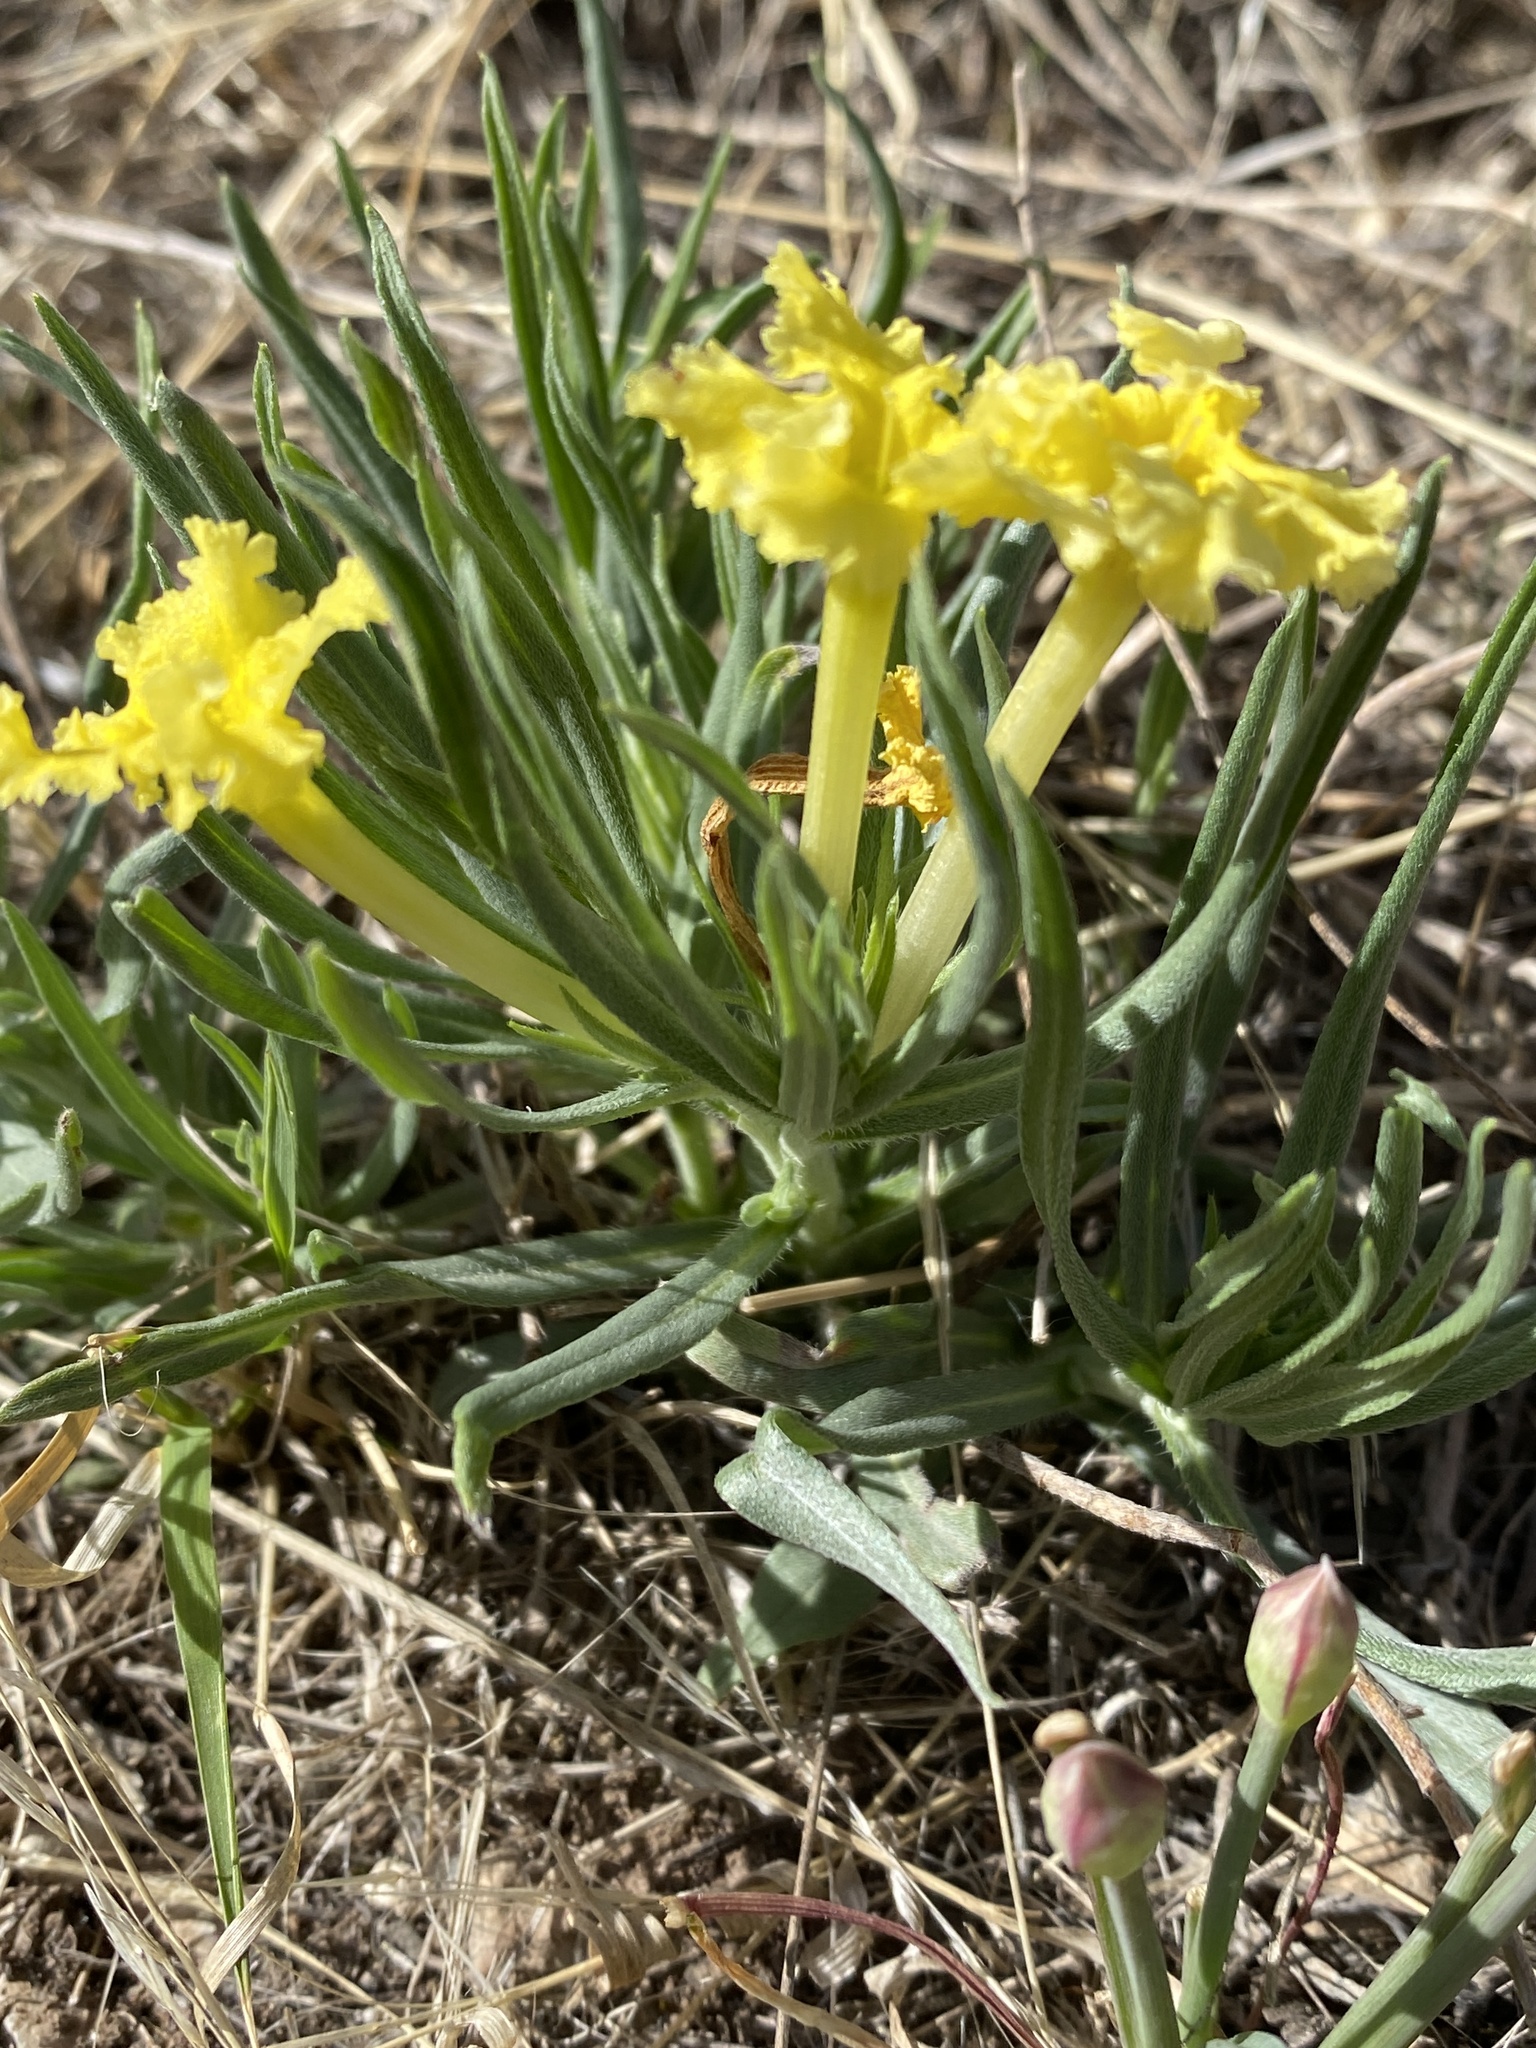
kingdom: Plantae
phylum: Tracheophyta
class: Magnoliopsida
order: Boraginales
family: Boraginaceae
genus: Lithospermum
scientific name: Lithospermum incisum
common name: Fringed gromwell
